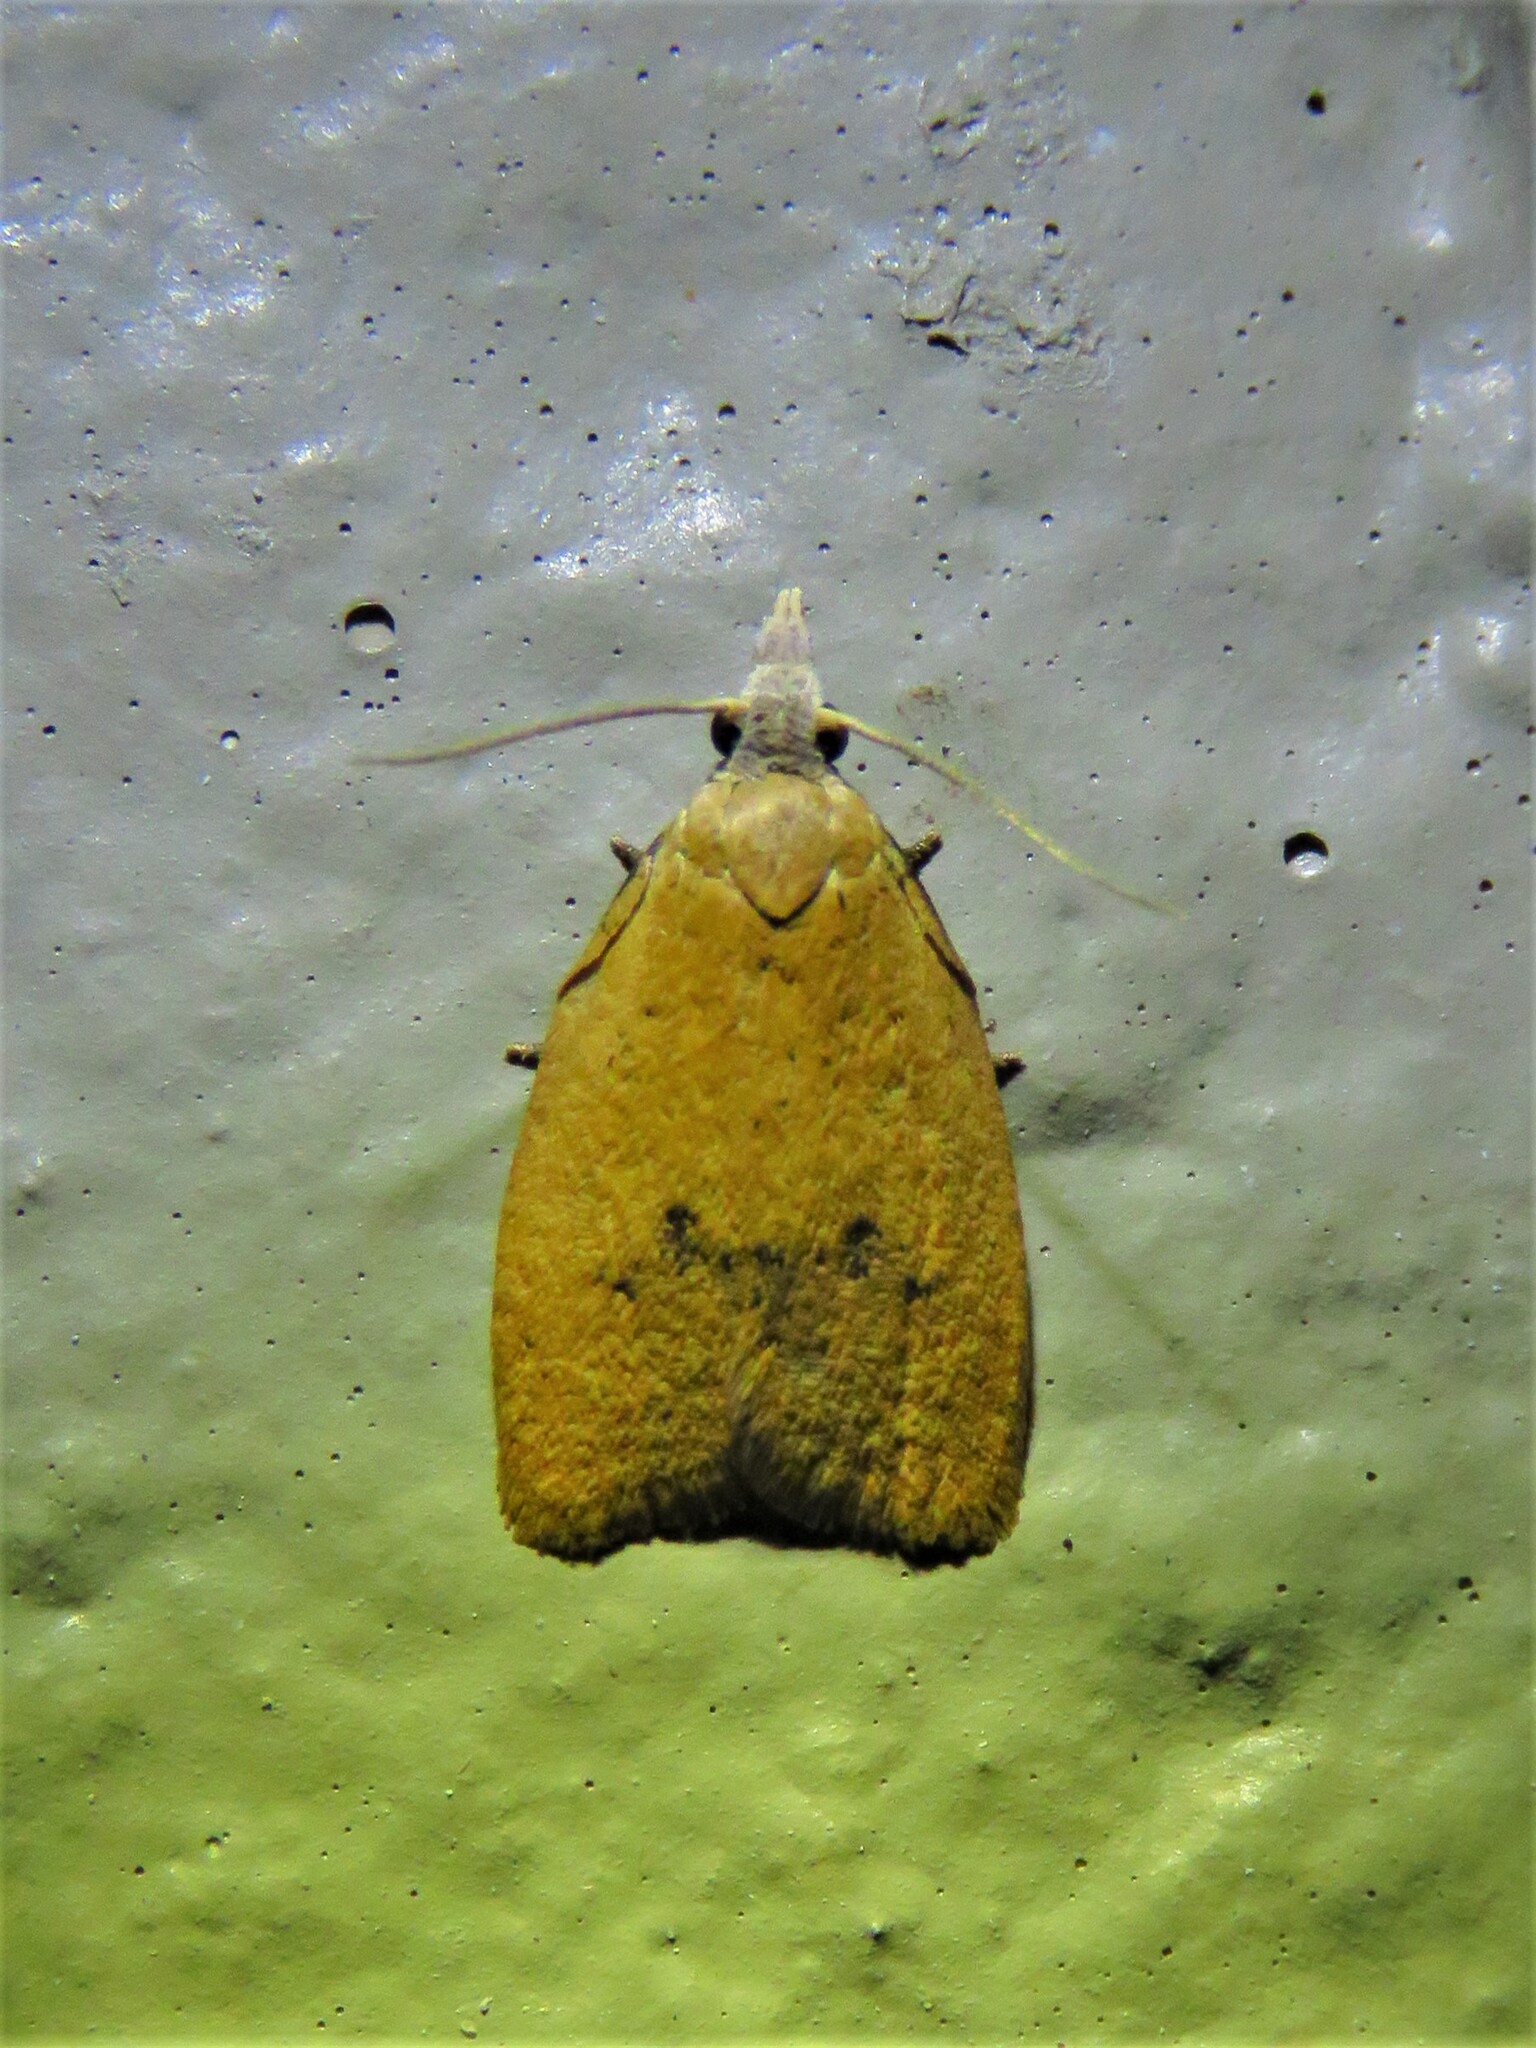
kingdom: Animalia
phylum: Arthropoda
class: Insecta
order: Lepidoptera
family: Tortricidae
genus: Sparganothoides
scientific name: Sparganothoides lentiginosana
